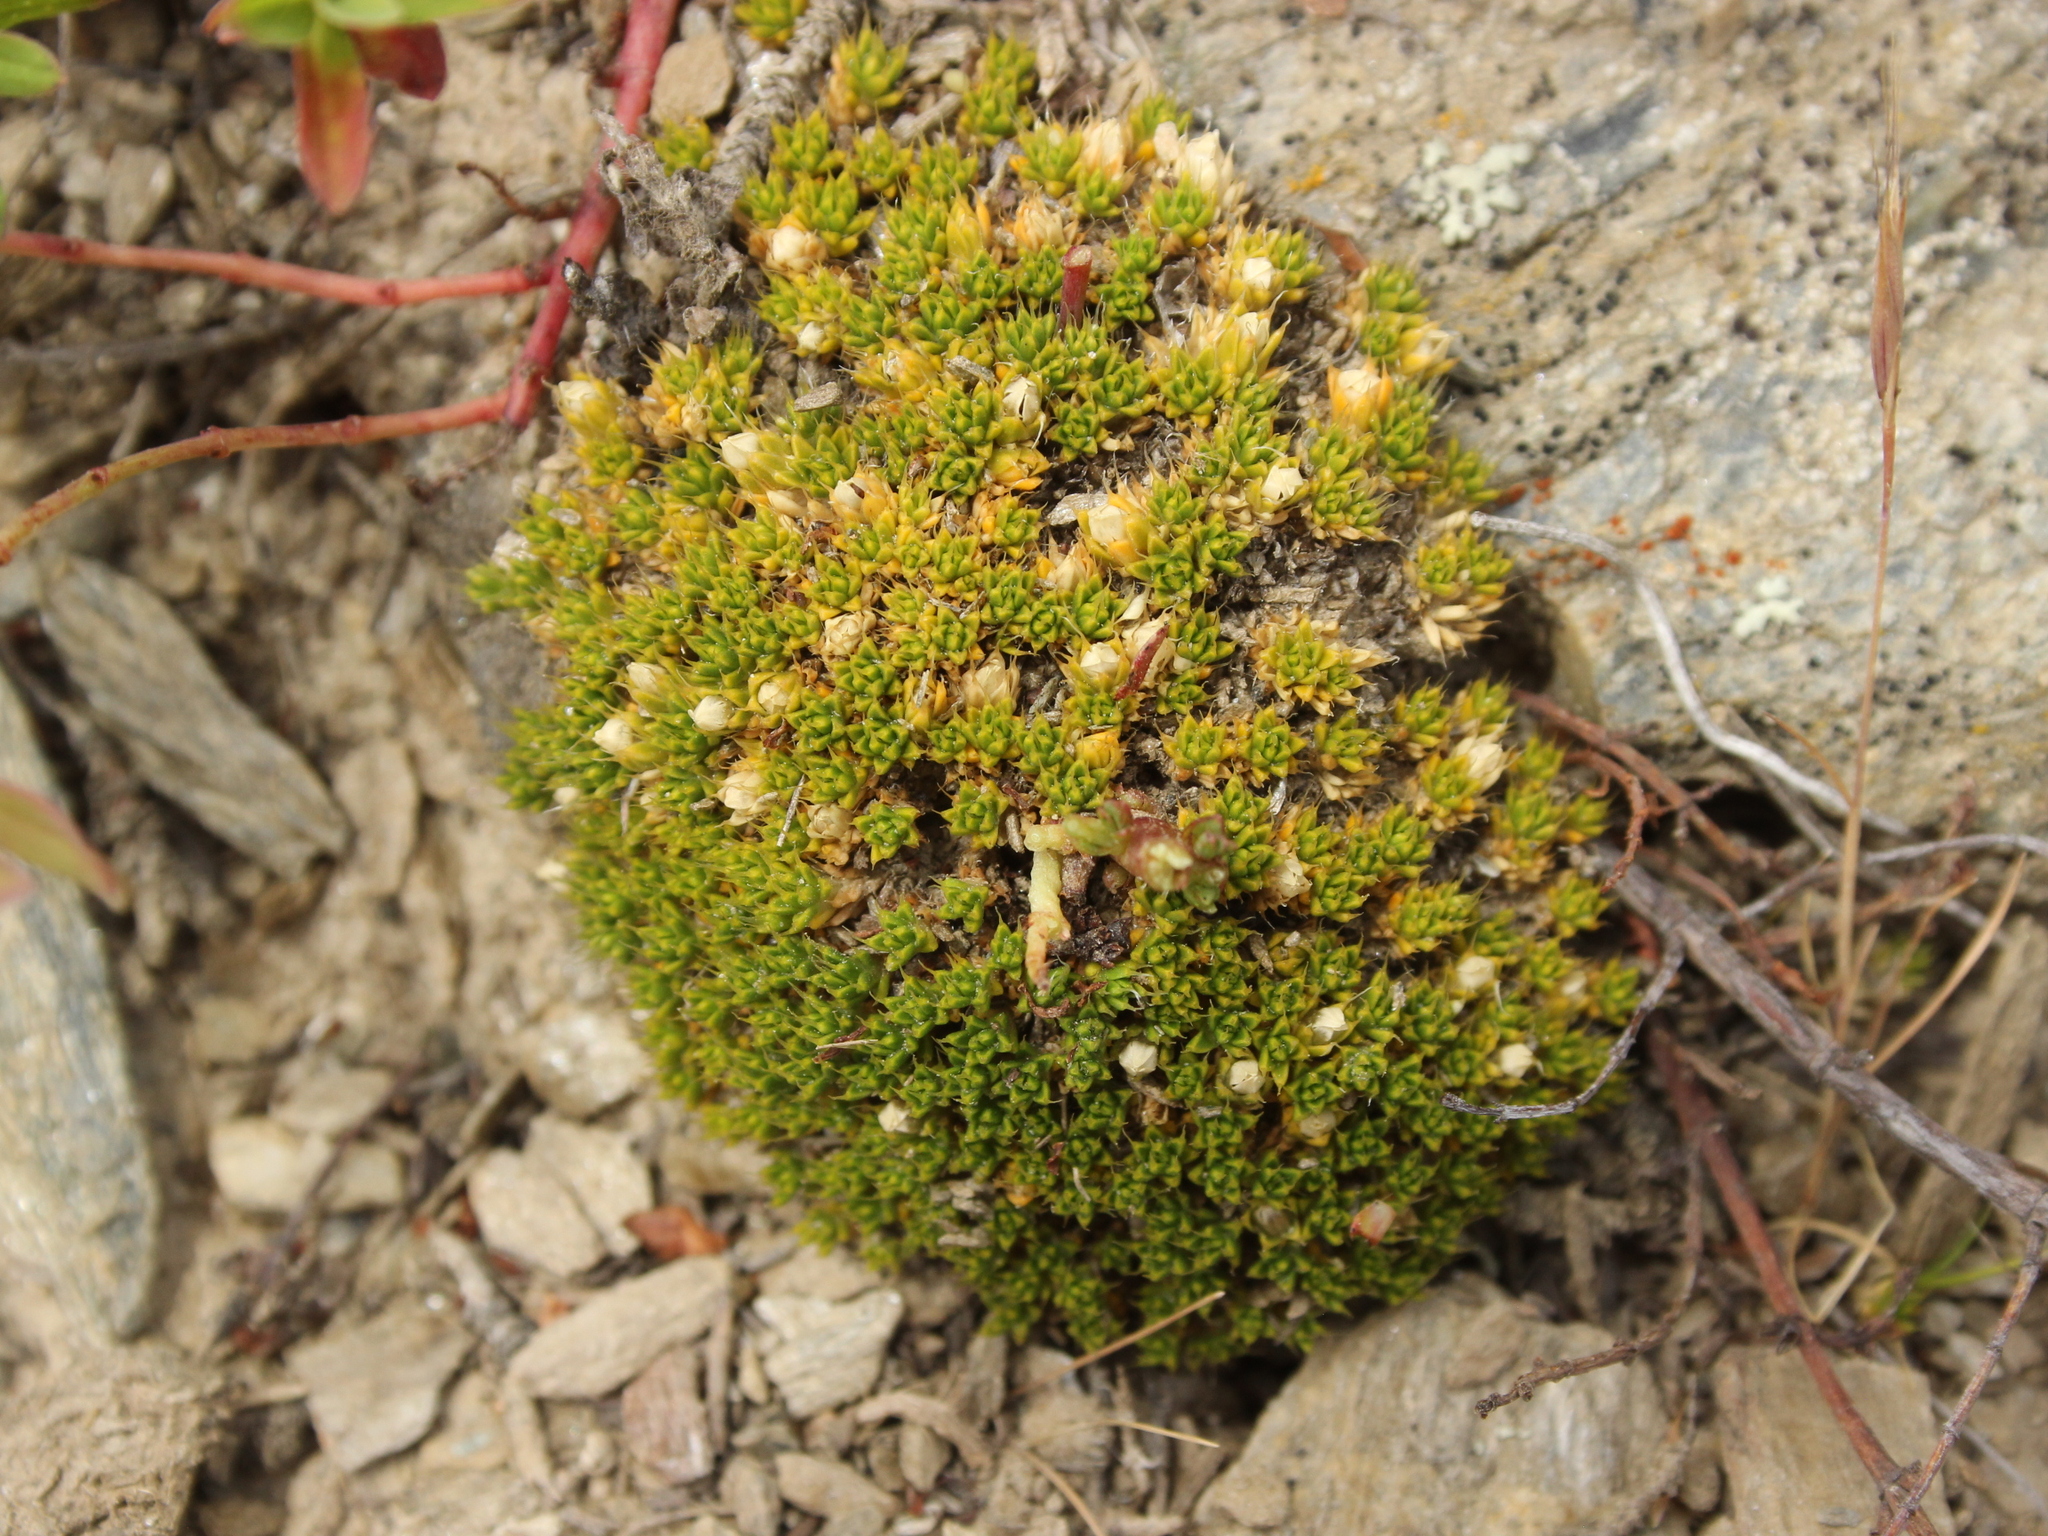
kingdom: Plantae
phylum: Tracheophyta
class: Magnoliopsida
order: Caryophyllales
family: Caryophyllaceae
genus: Colobanthus
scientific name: Colobanthus brevisepalus
